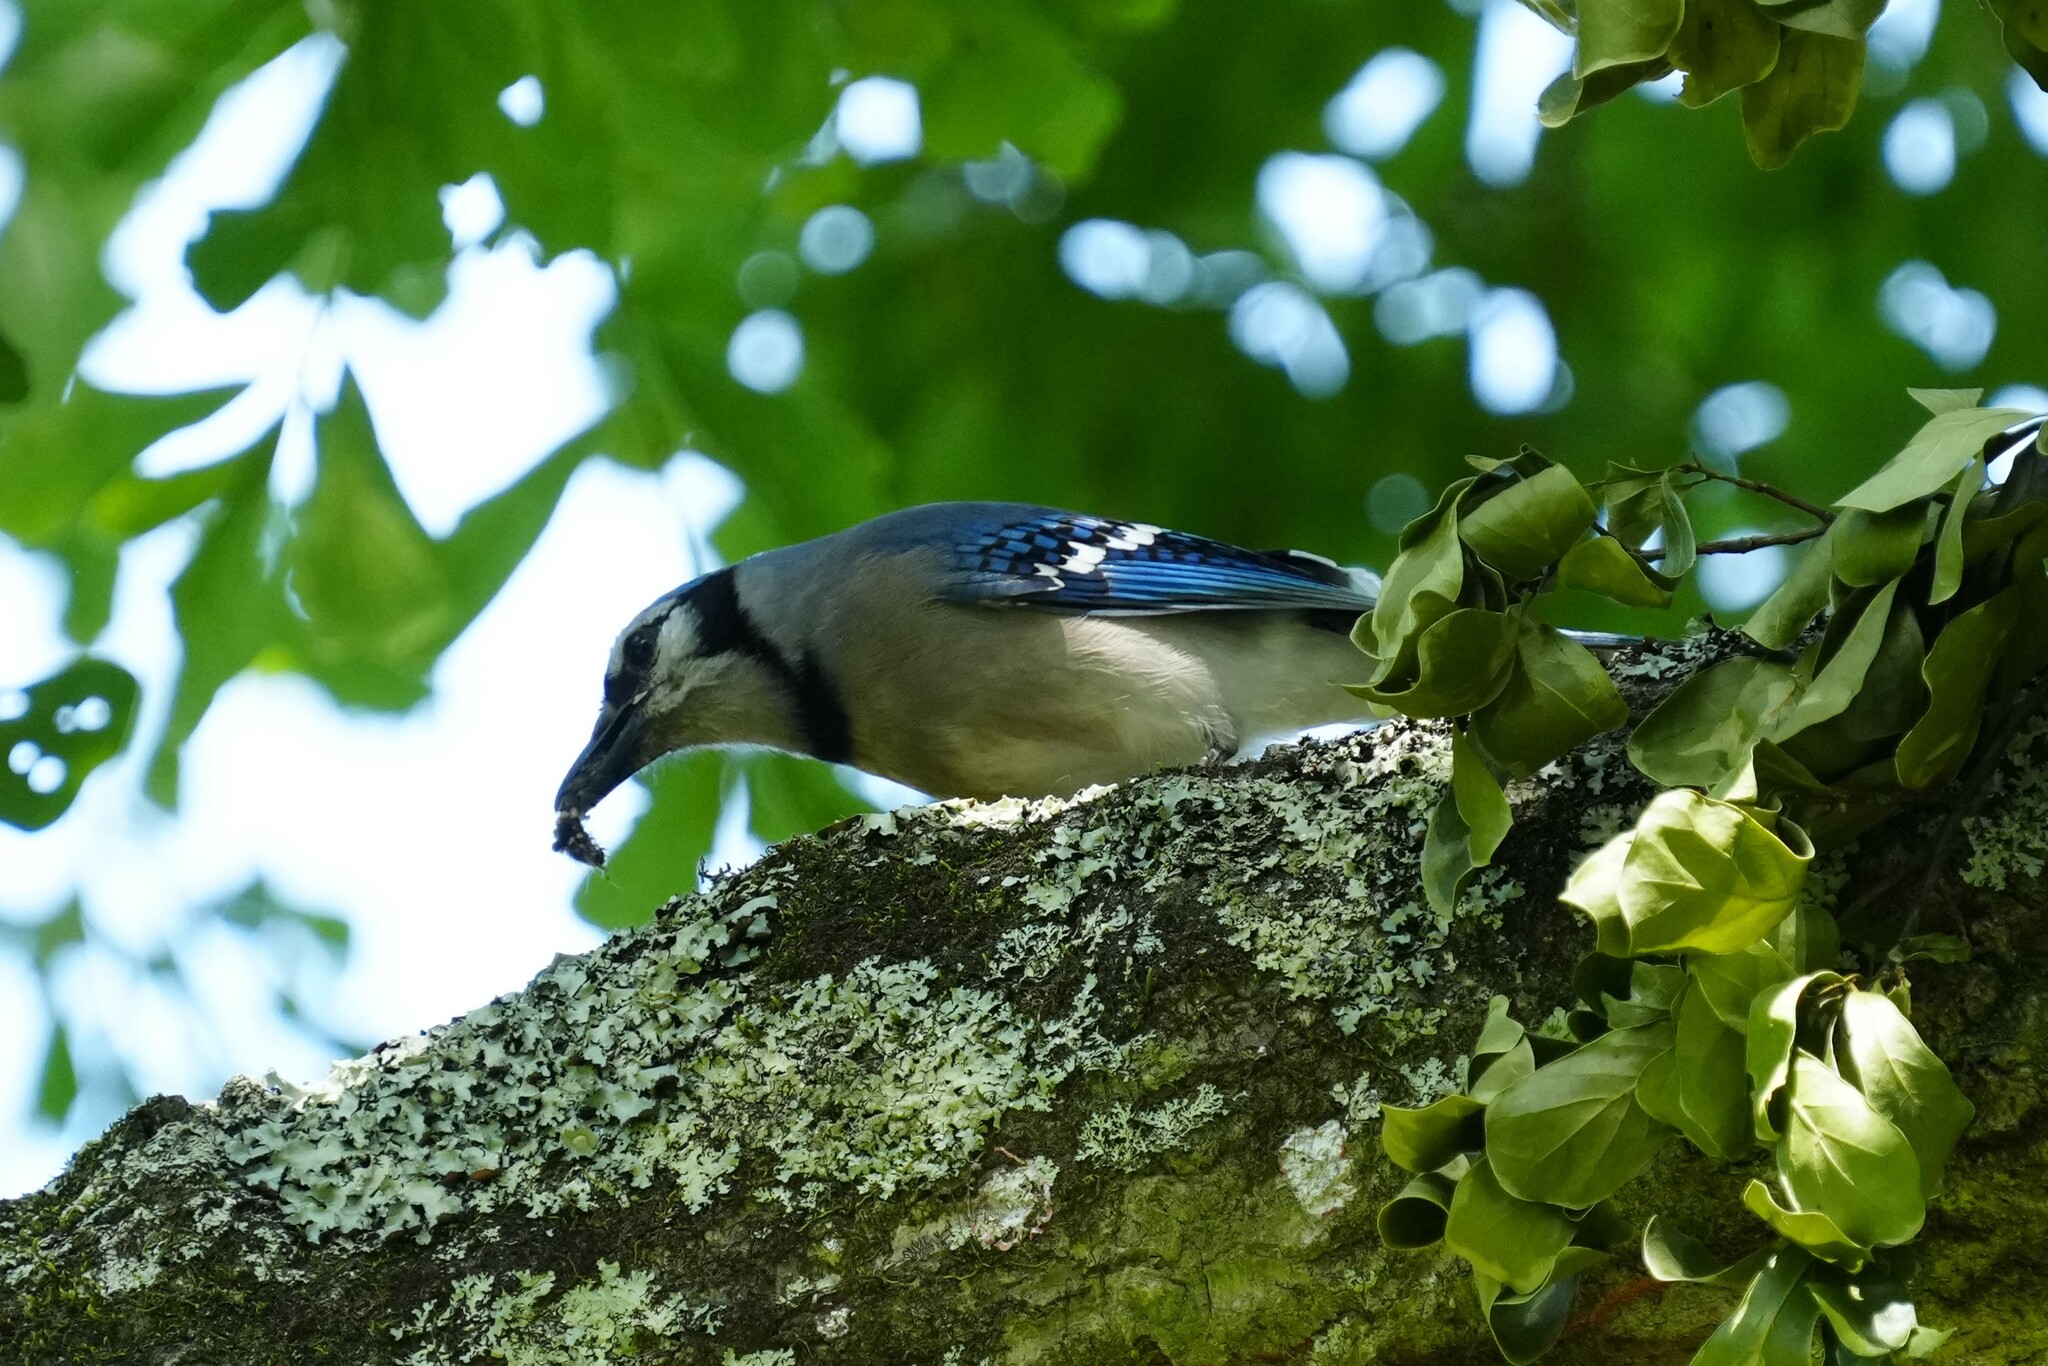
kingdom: Animalia
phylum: Chordata
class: Aves
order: Passeriformes
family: Corvidae
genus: Cyanocitta
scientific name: Cyanocitta cristata
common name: Blue jay
